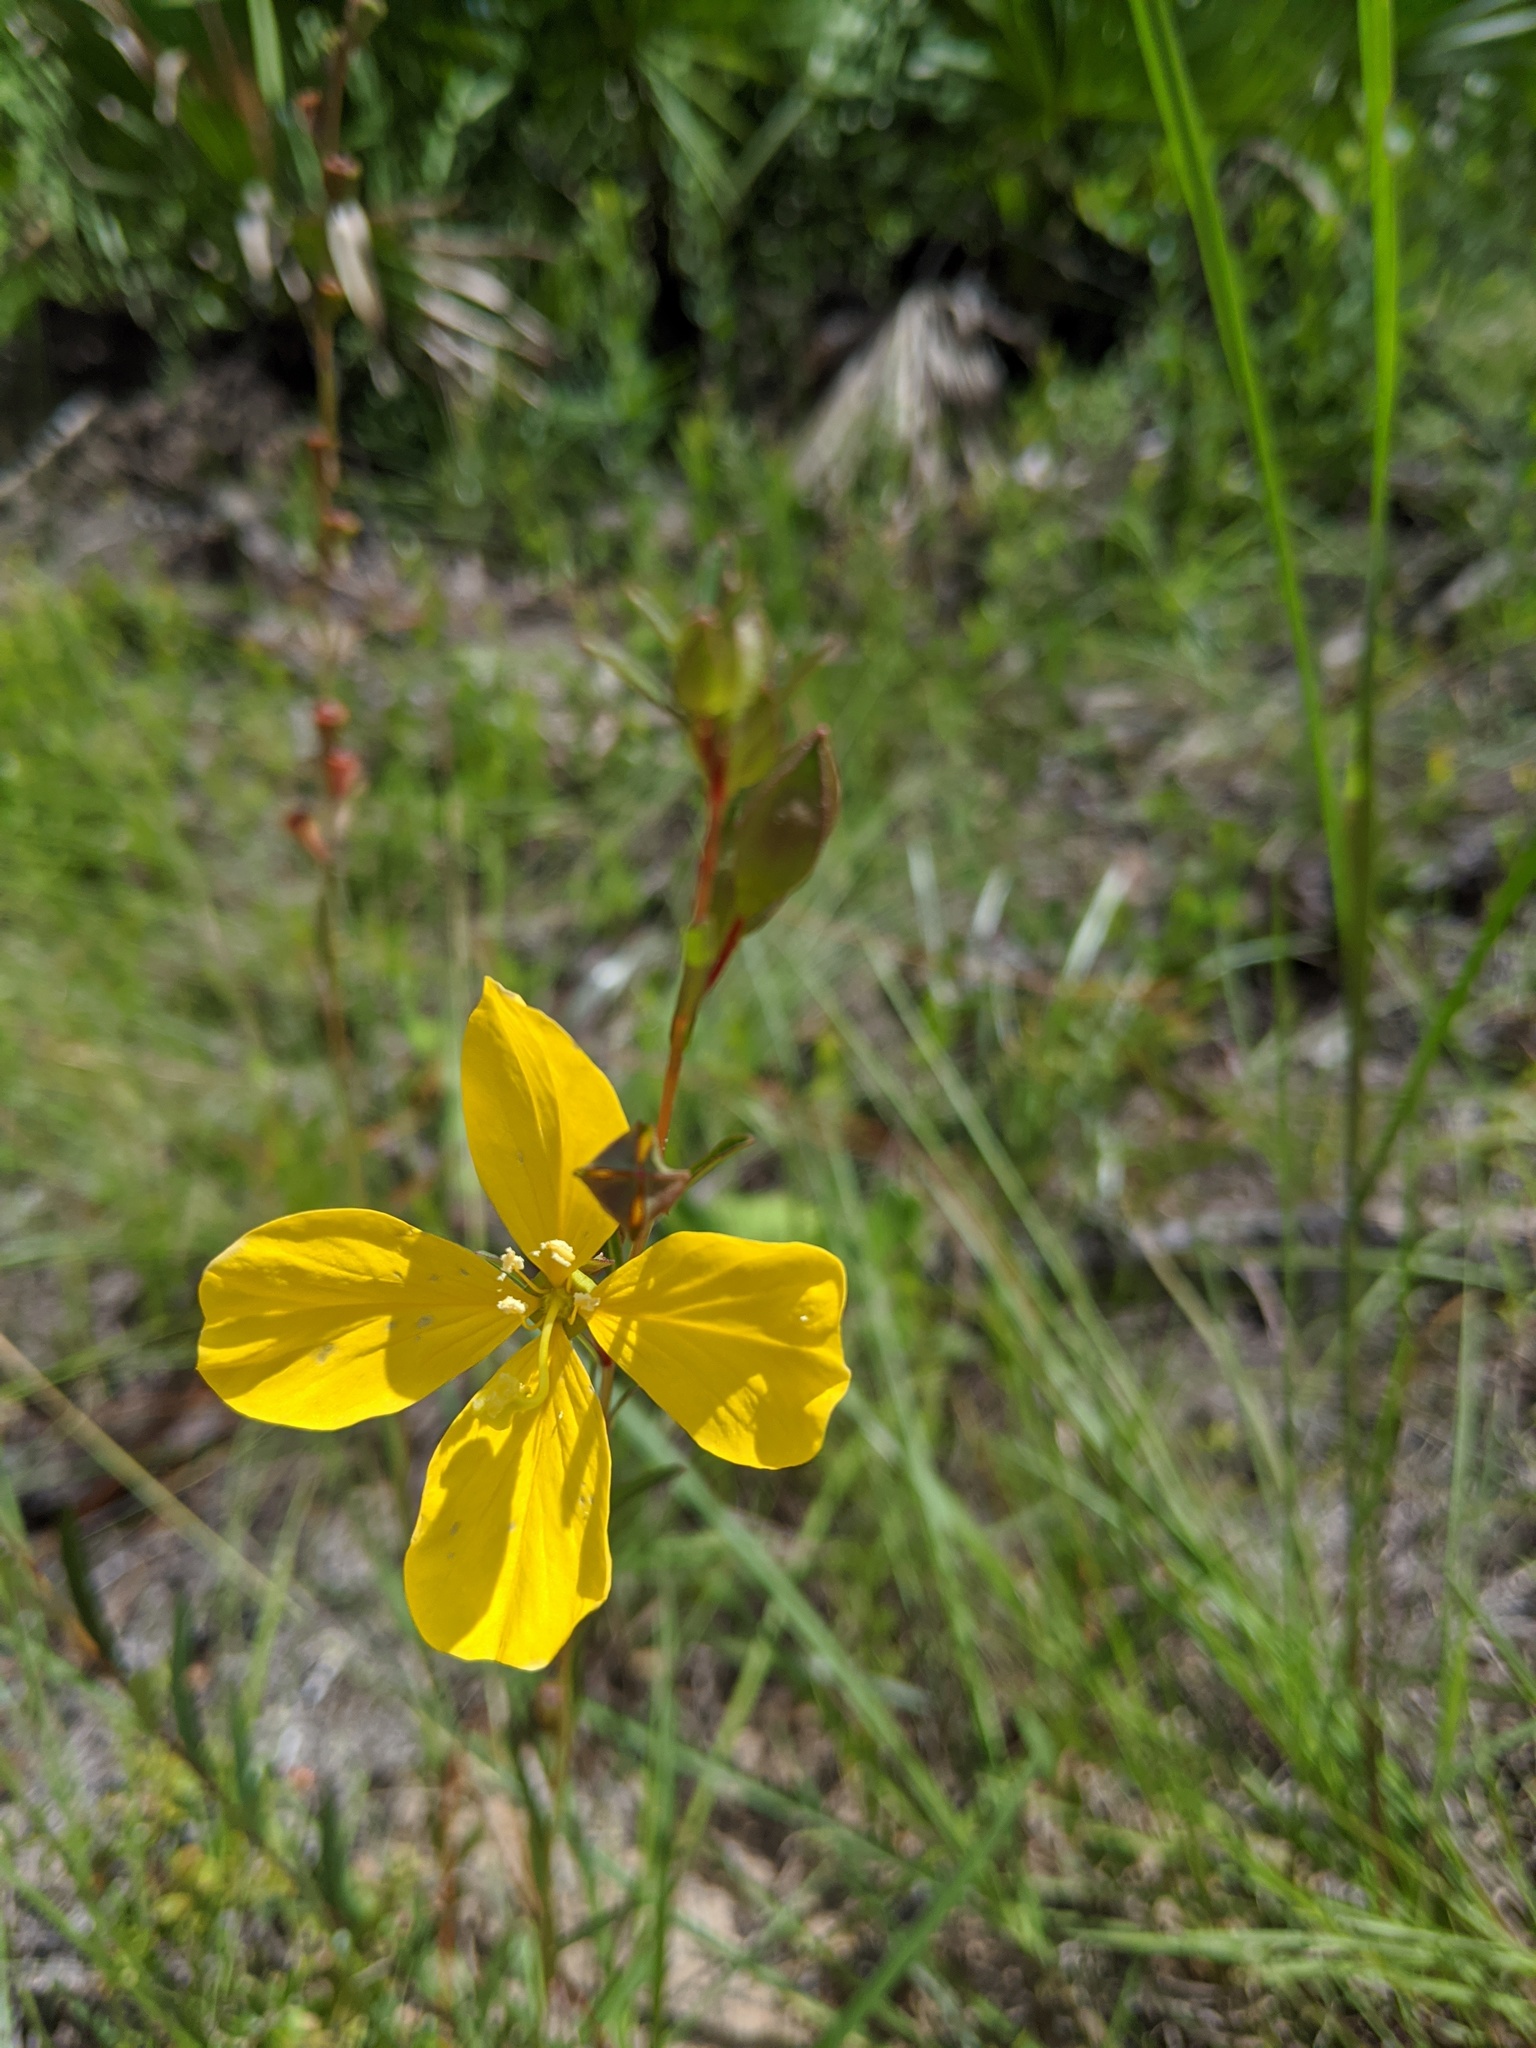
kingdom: Plantae
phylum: Tracheophyta
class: Magnoliopsida
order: Myrtales
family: Melastomataceae
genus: Rhexia
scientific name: Rhexia lutea
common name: Golden meadow-beauty
